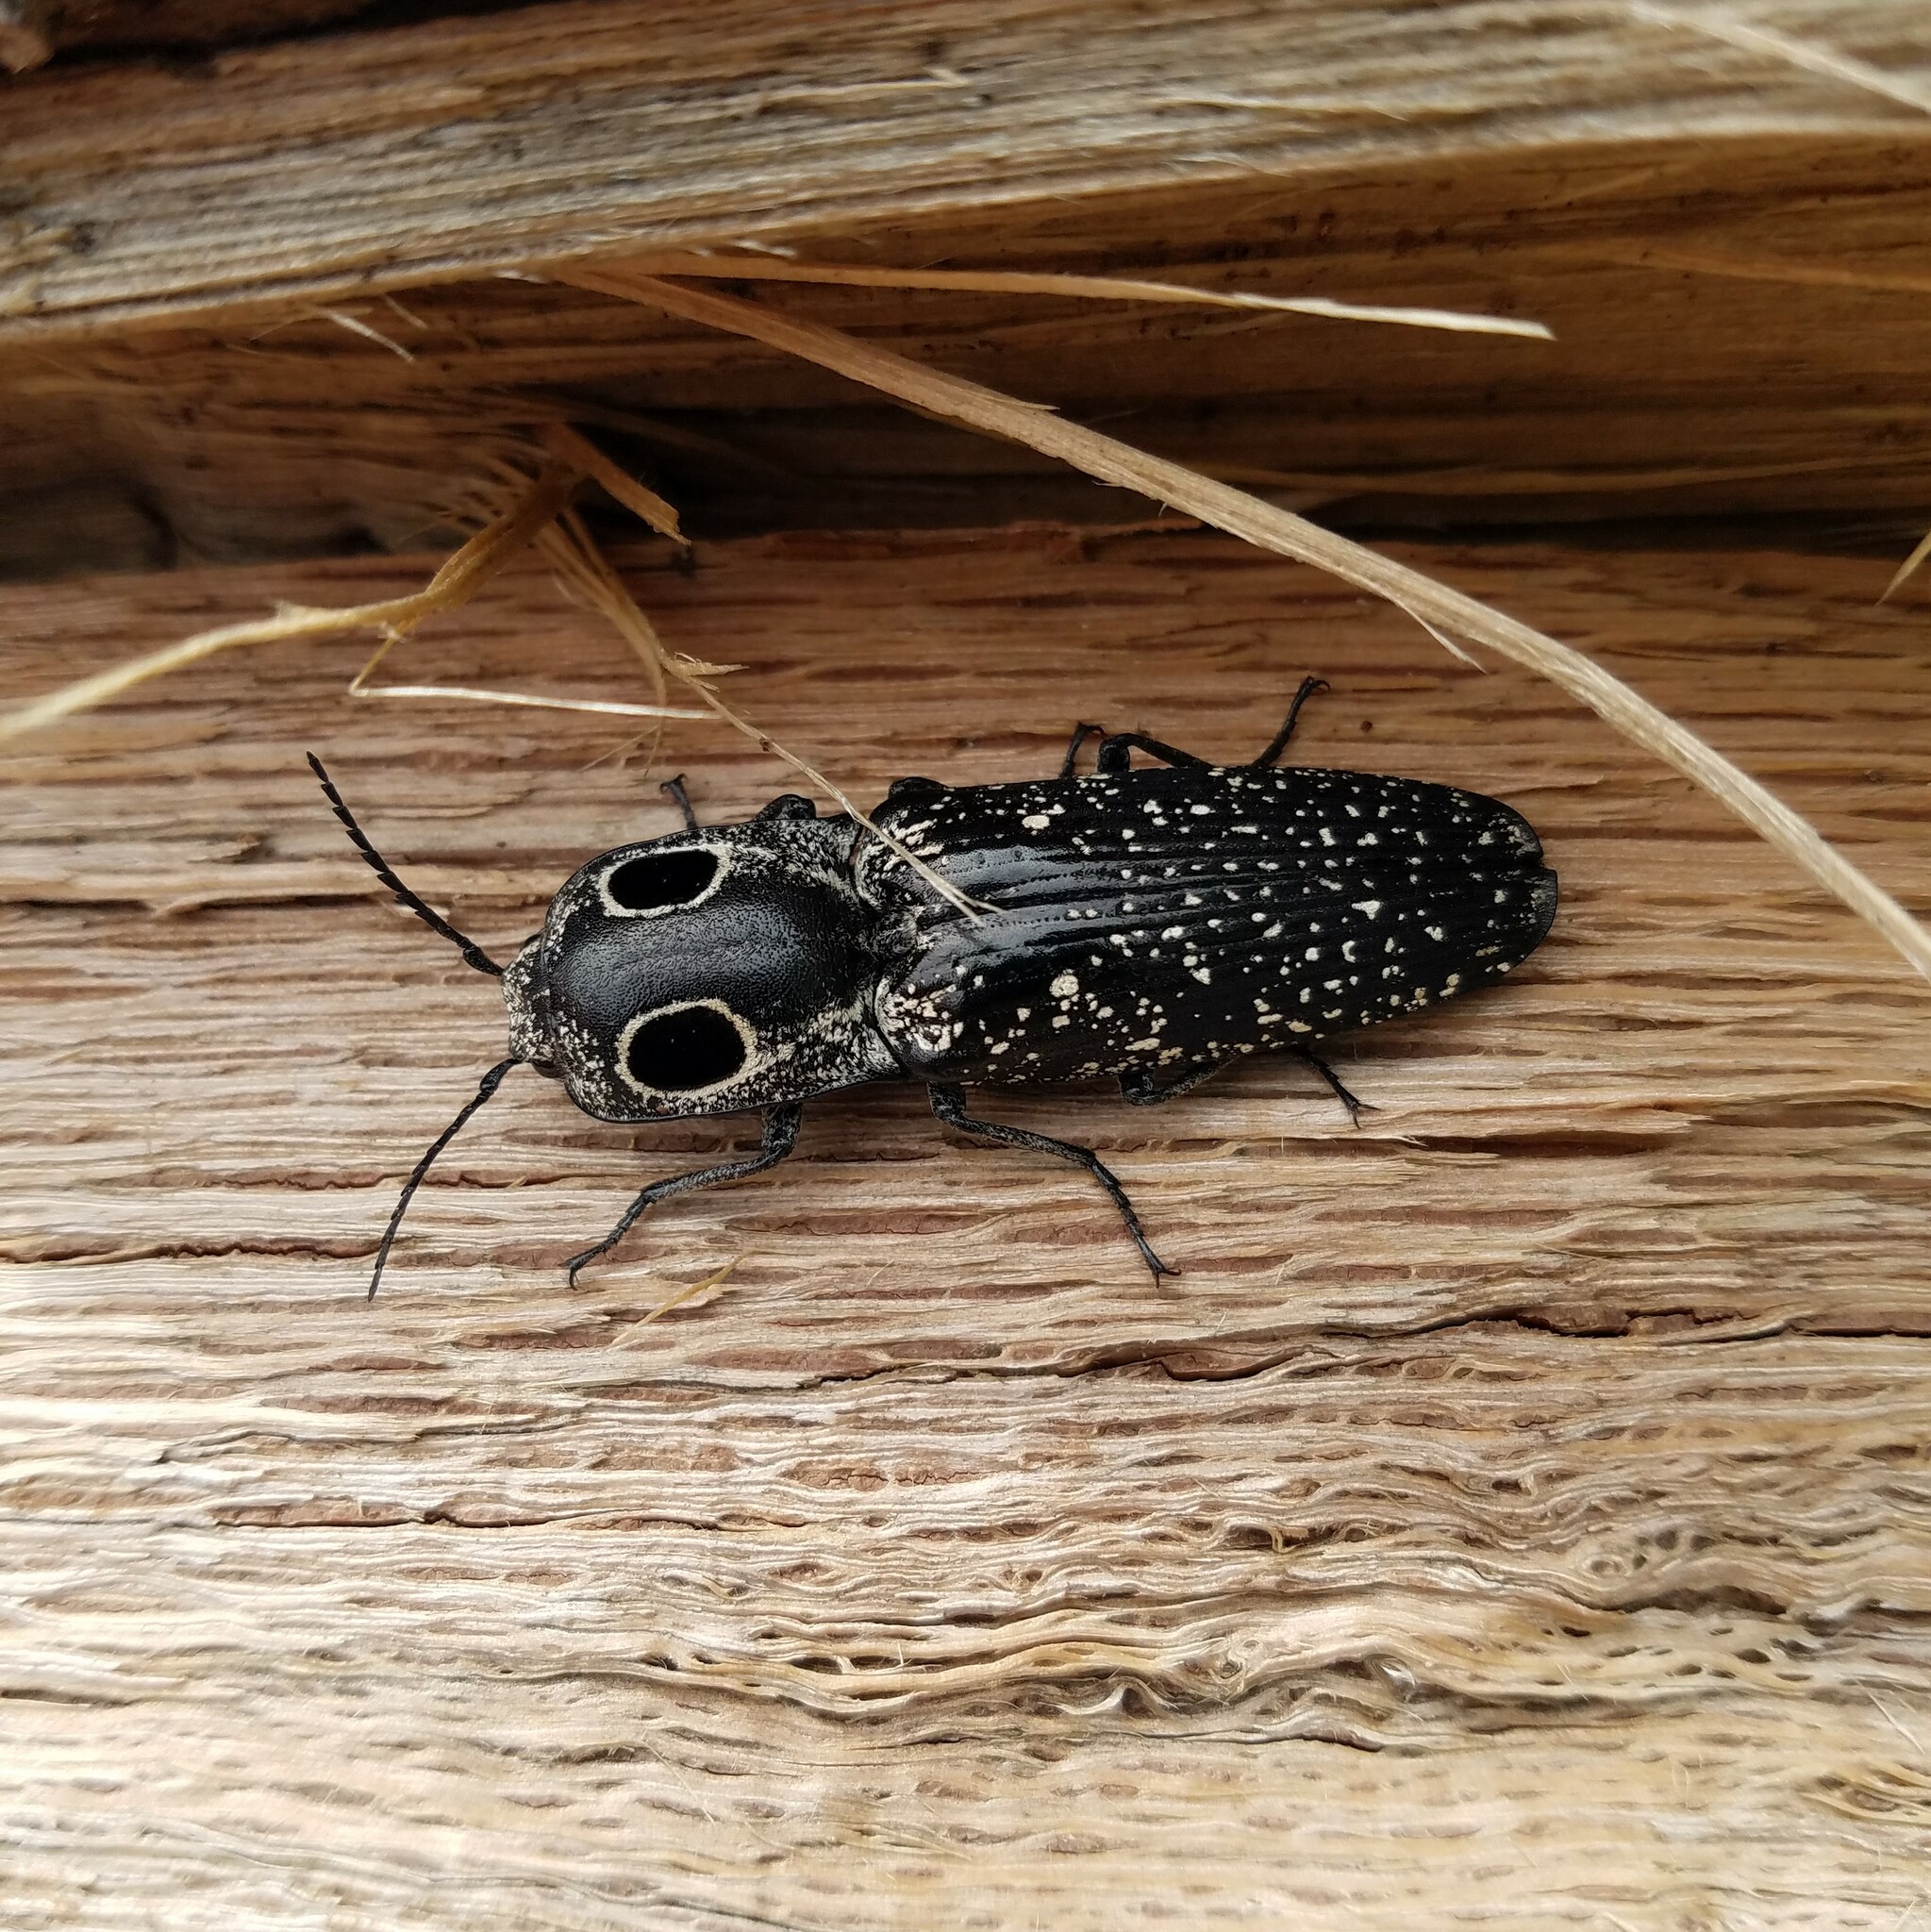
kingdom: Animalia
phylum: Arthropoda
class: Insecta
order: Coleoptera
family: Elateridae
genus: Alaus
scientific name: Alaus oculatus
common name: Eastern eyed click beetle
